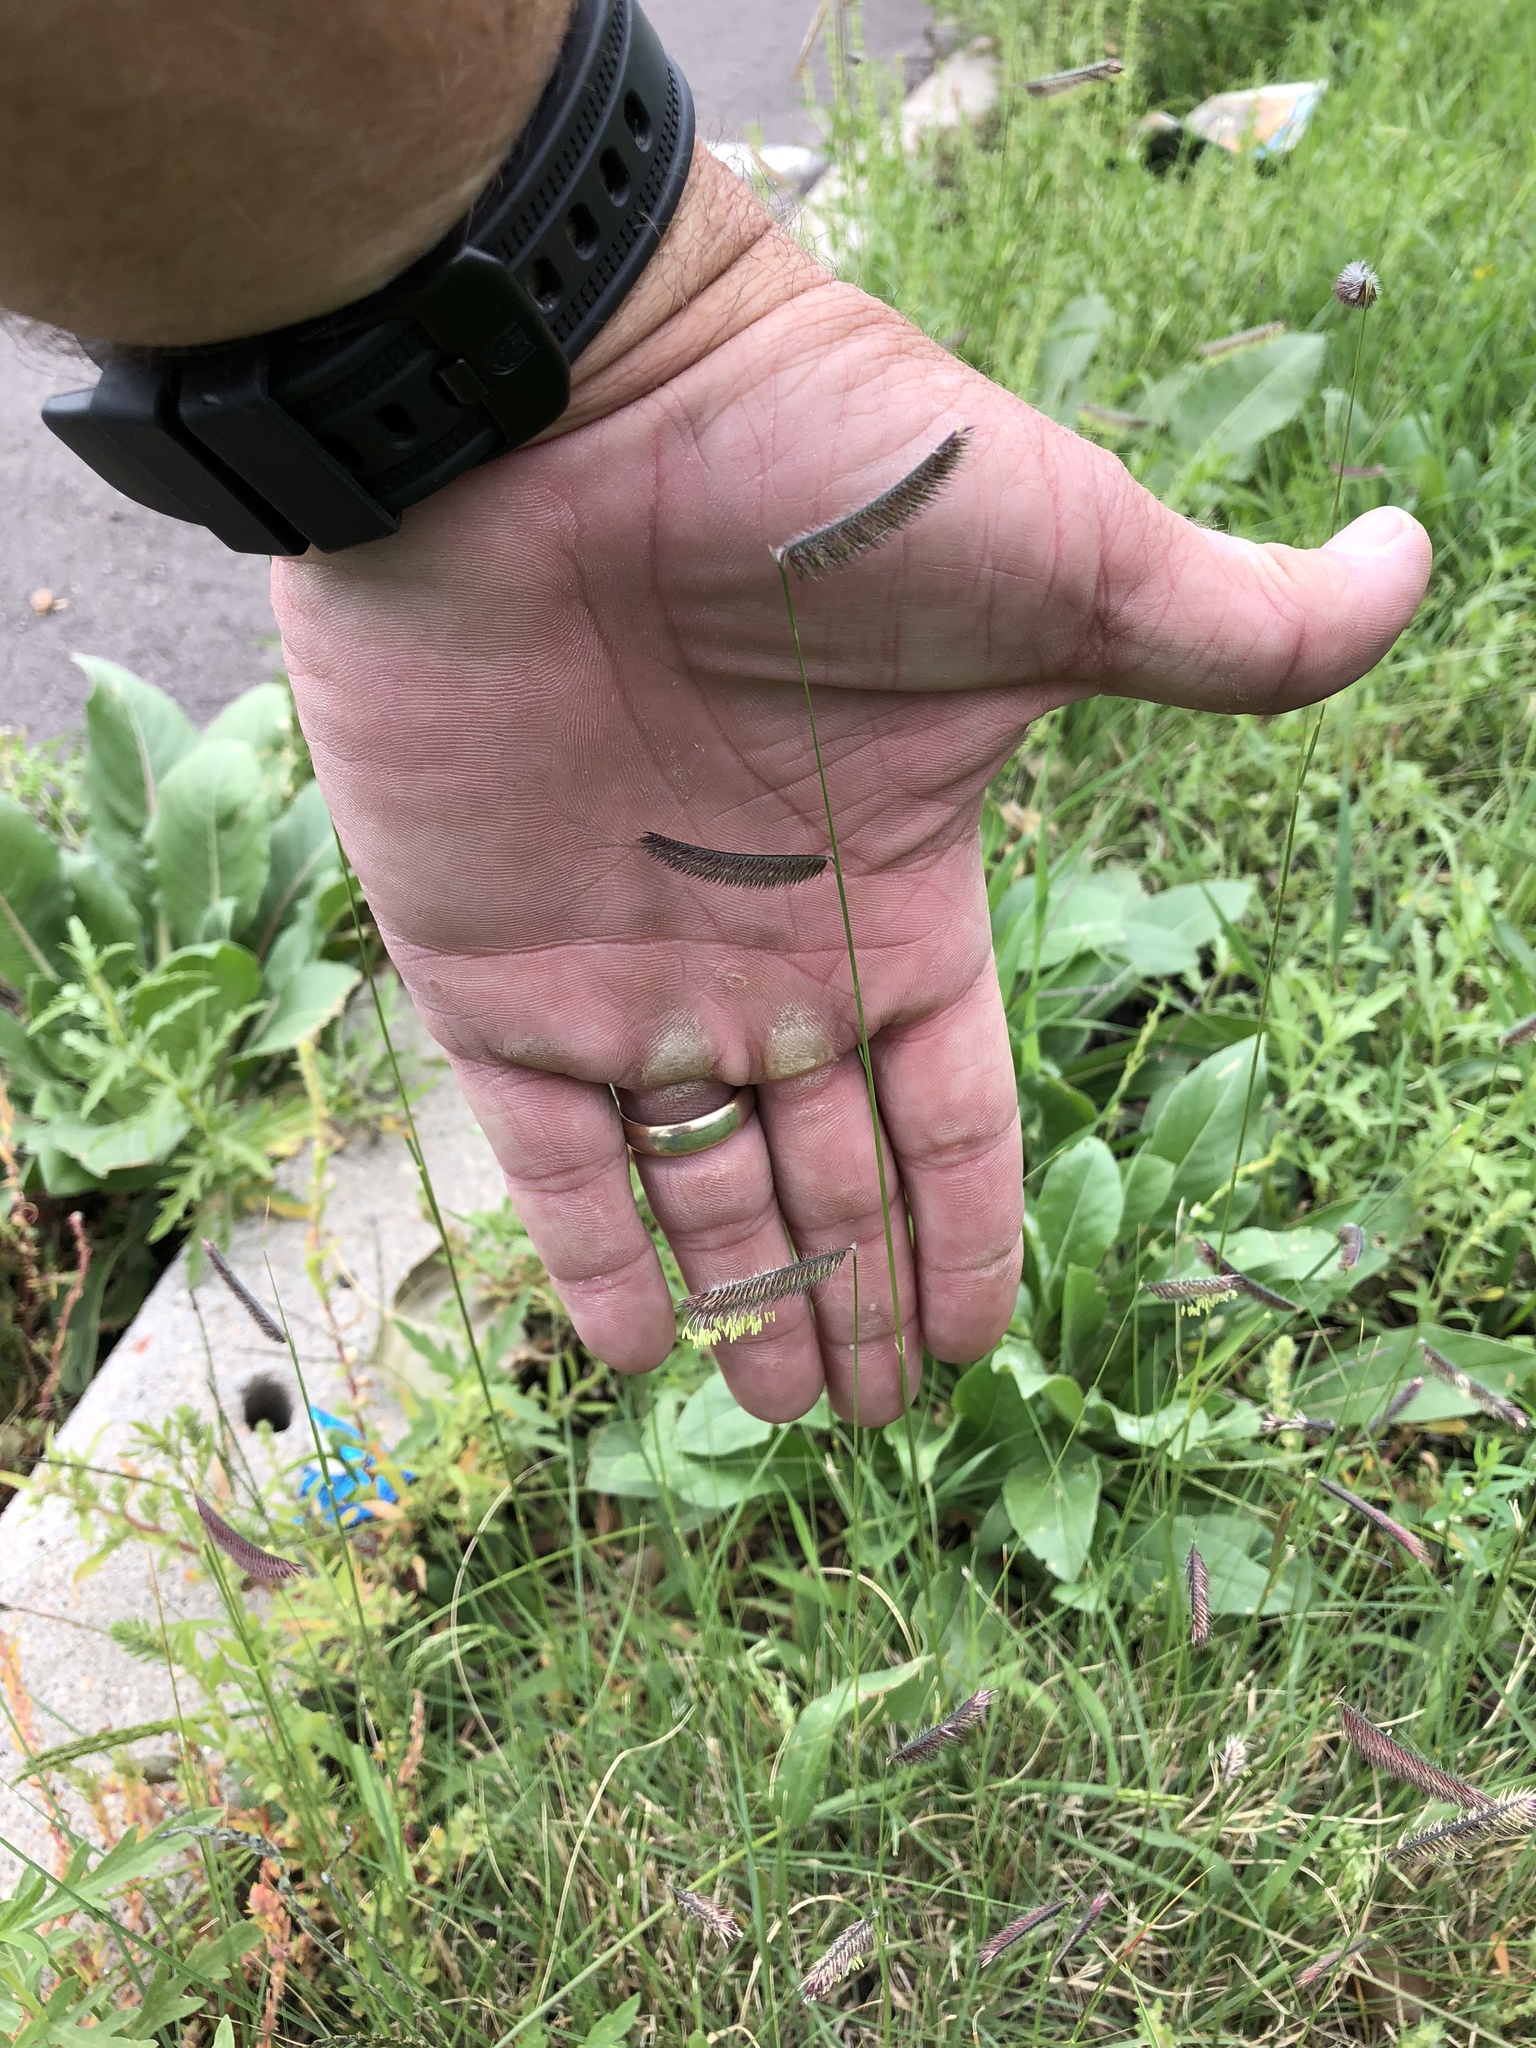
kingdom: Plantae
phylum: Tracheophyta
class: Liliopsida
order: Poales
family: Poaceae
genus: Bouteloua
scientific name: Bouteloua gracilis
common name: Blue grama
